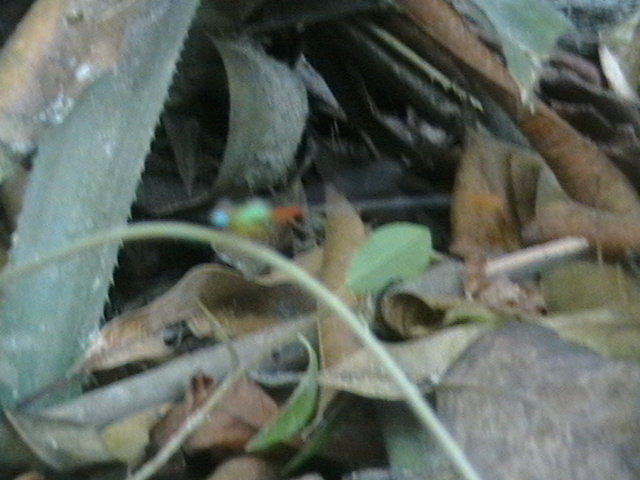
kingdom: Animalia
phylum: Arthropoda
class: Insecta
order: Odonata
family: Coenagrionidae
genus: Ceriagrion
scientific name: Ceriagrion cerinorubellum
